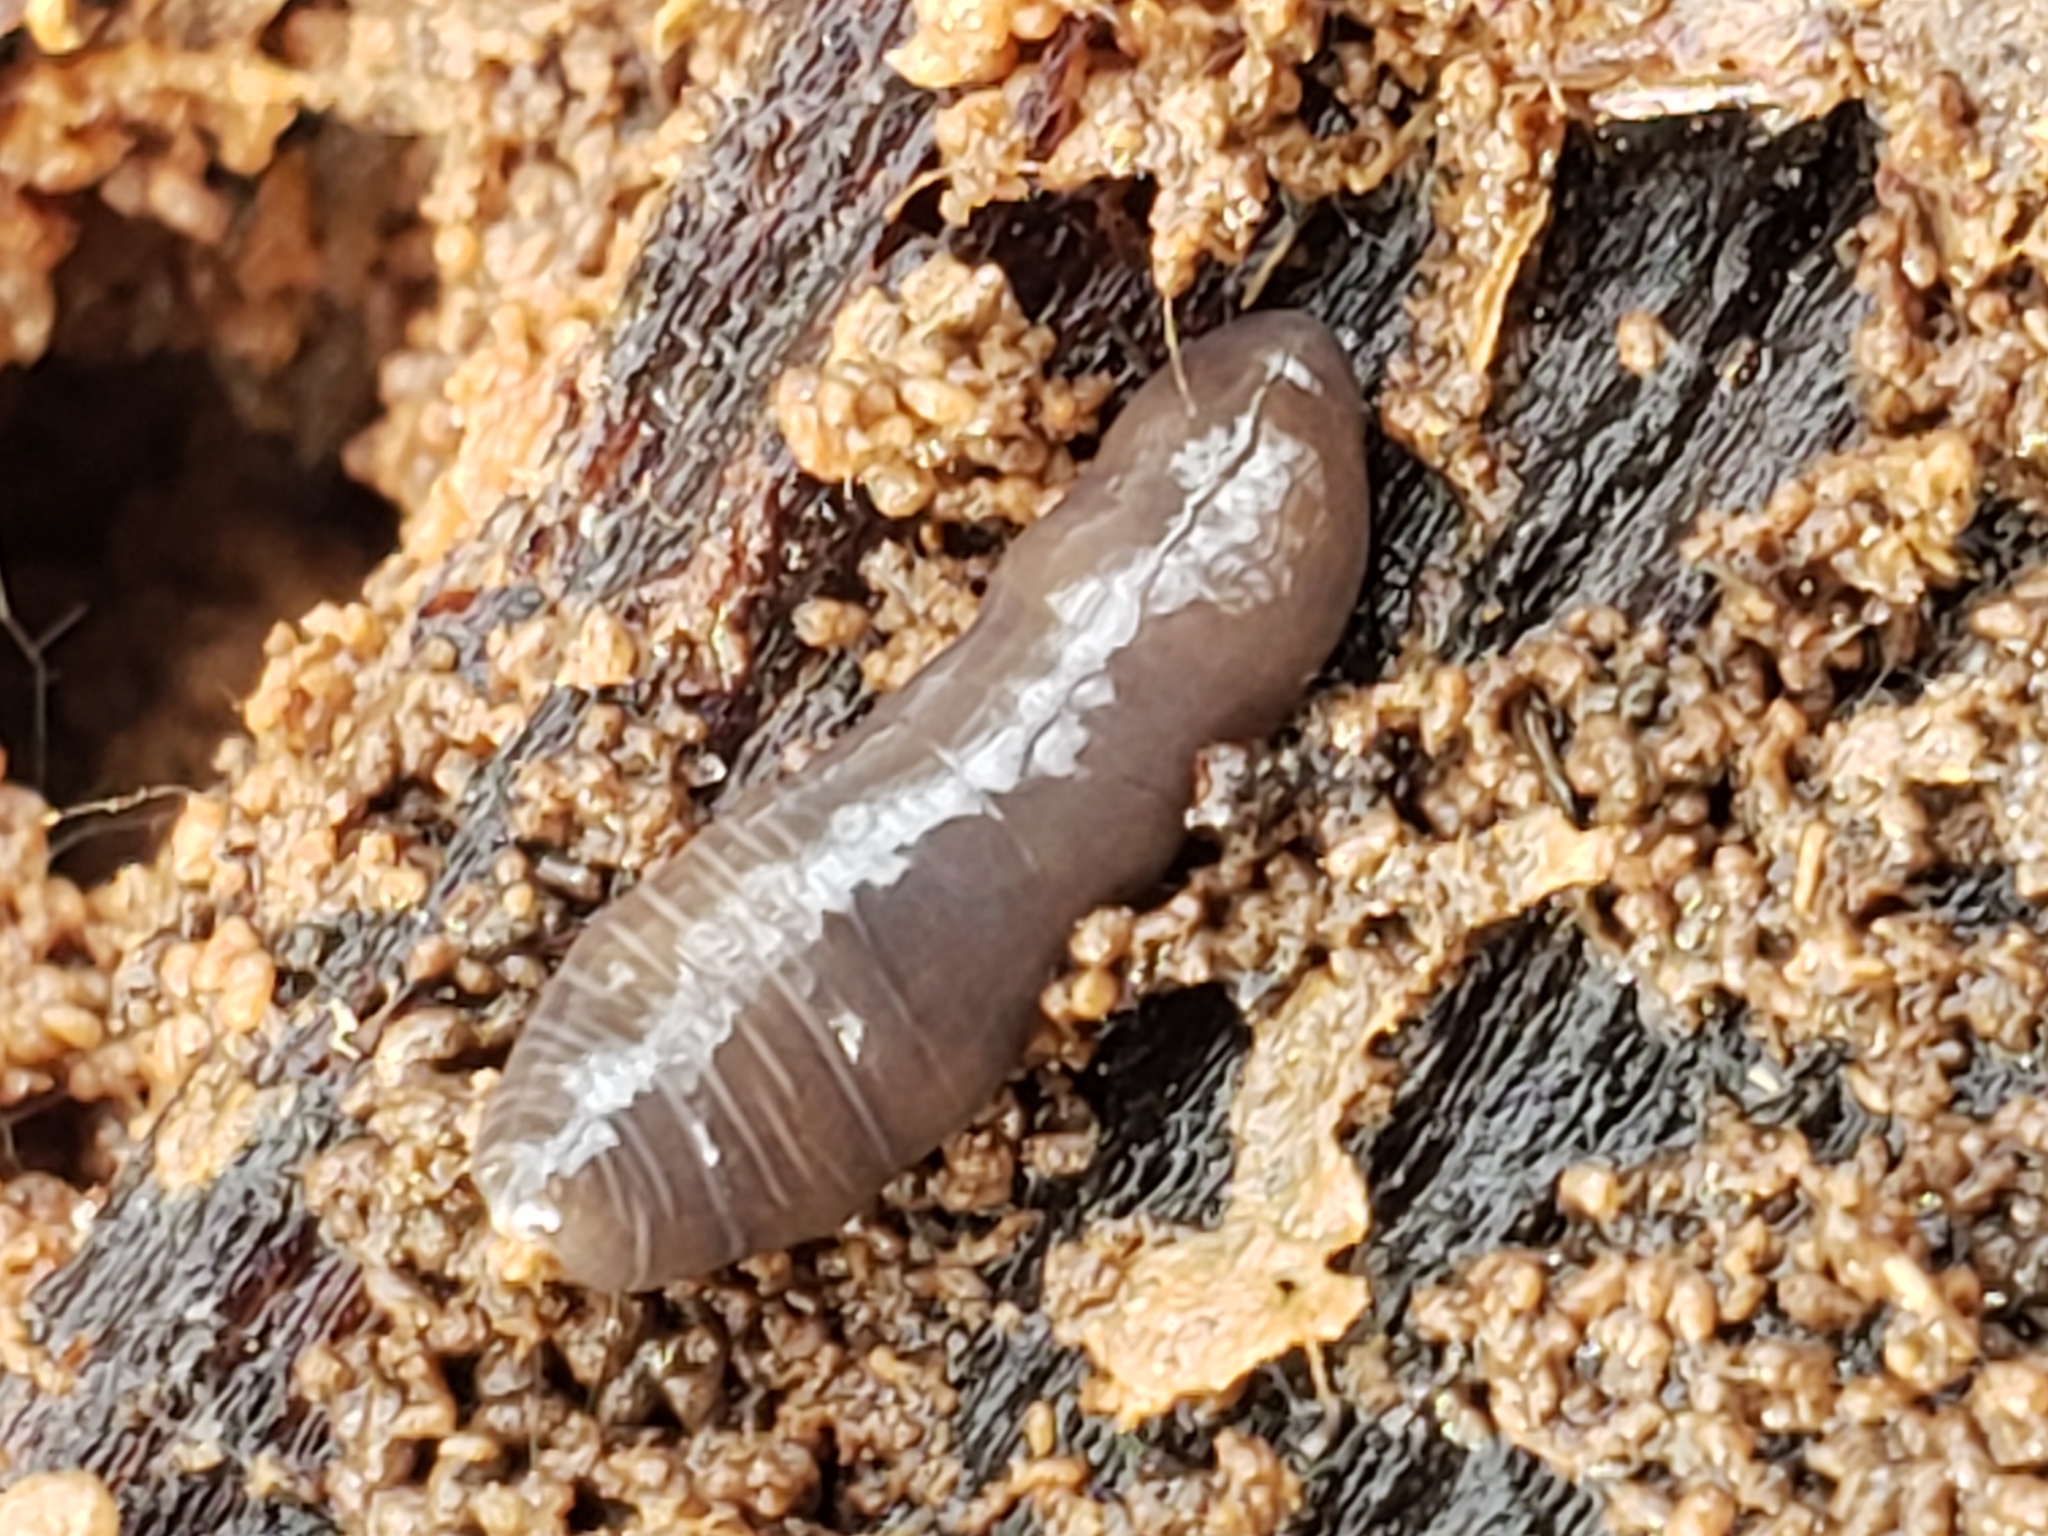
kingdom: Animalia
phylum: Platyhelminthes
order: Tricladida
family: Geoplanidae
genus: Microplana
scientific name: Microplana terrestris
